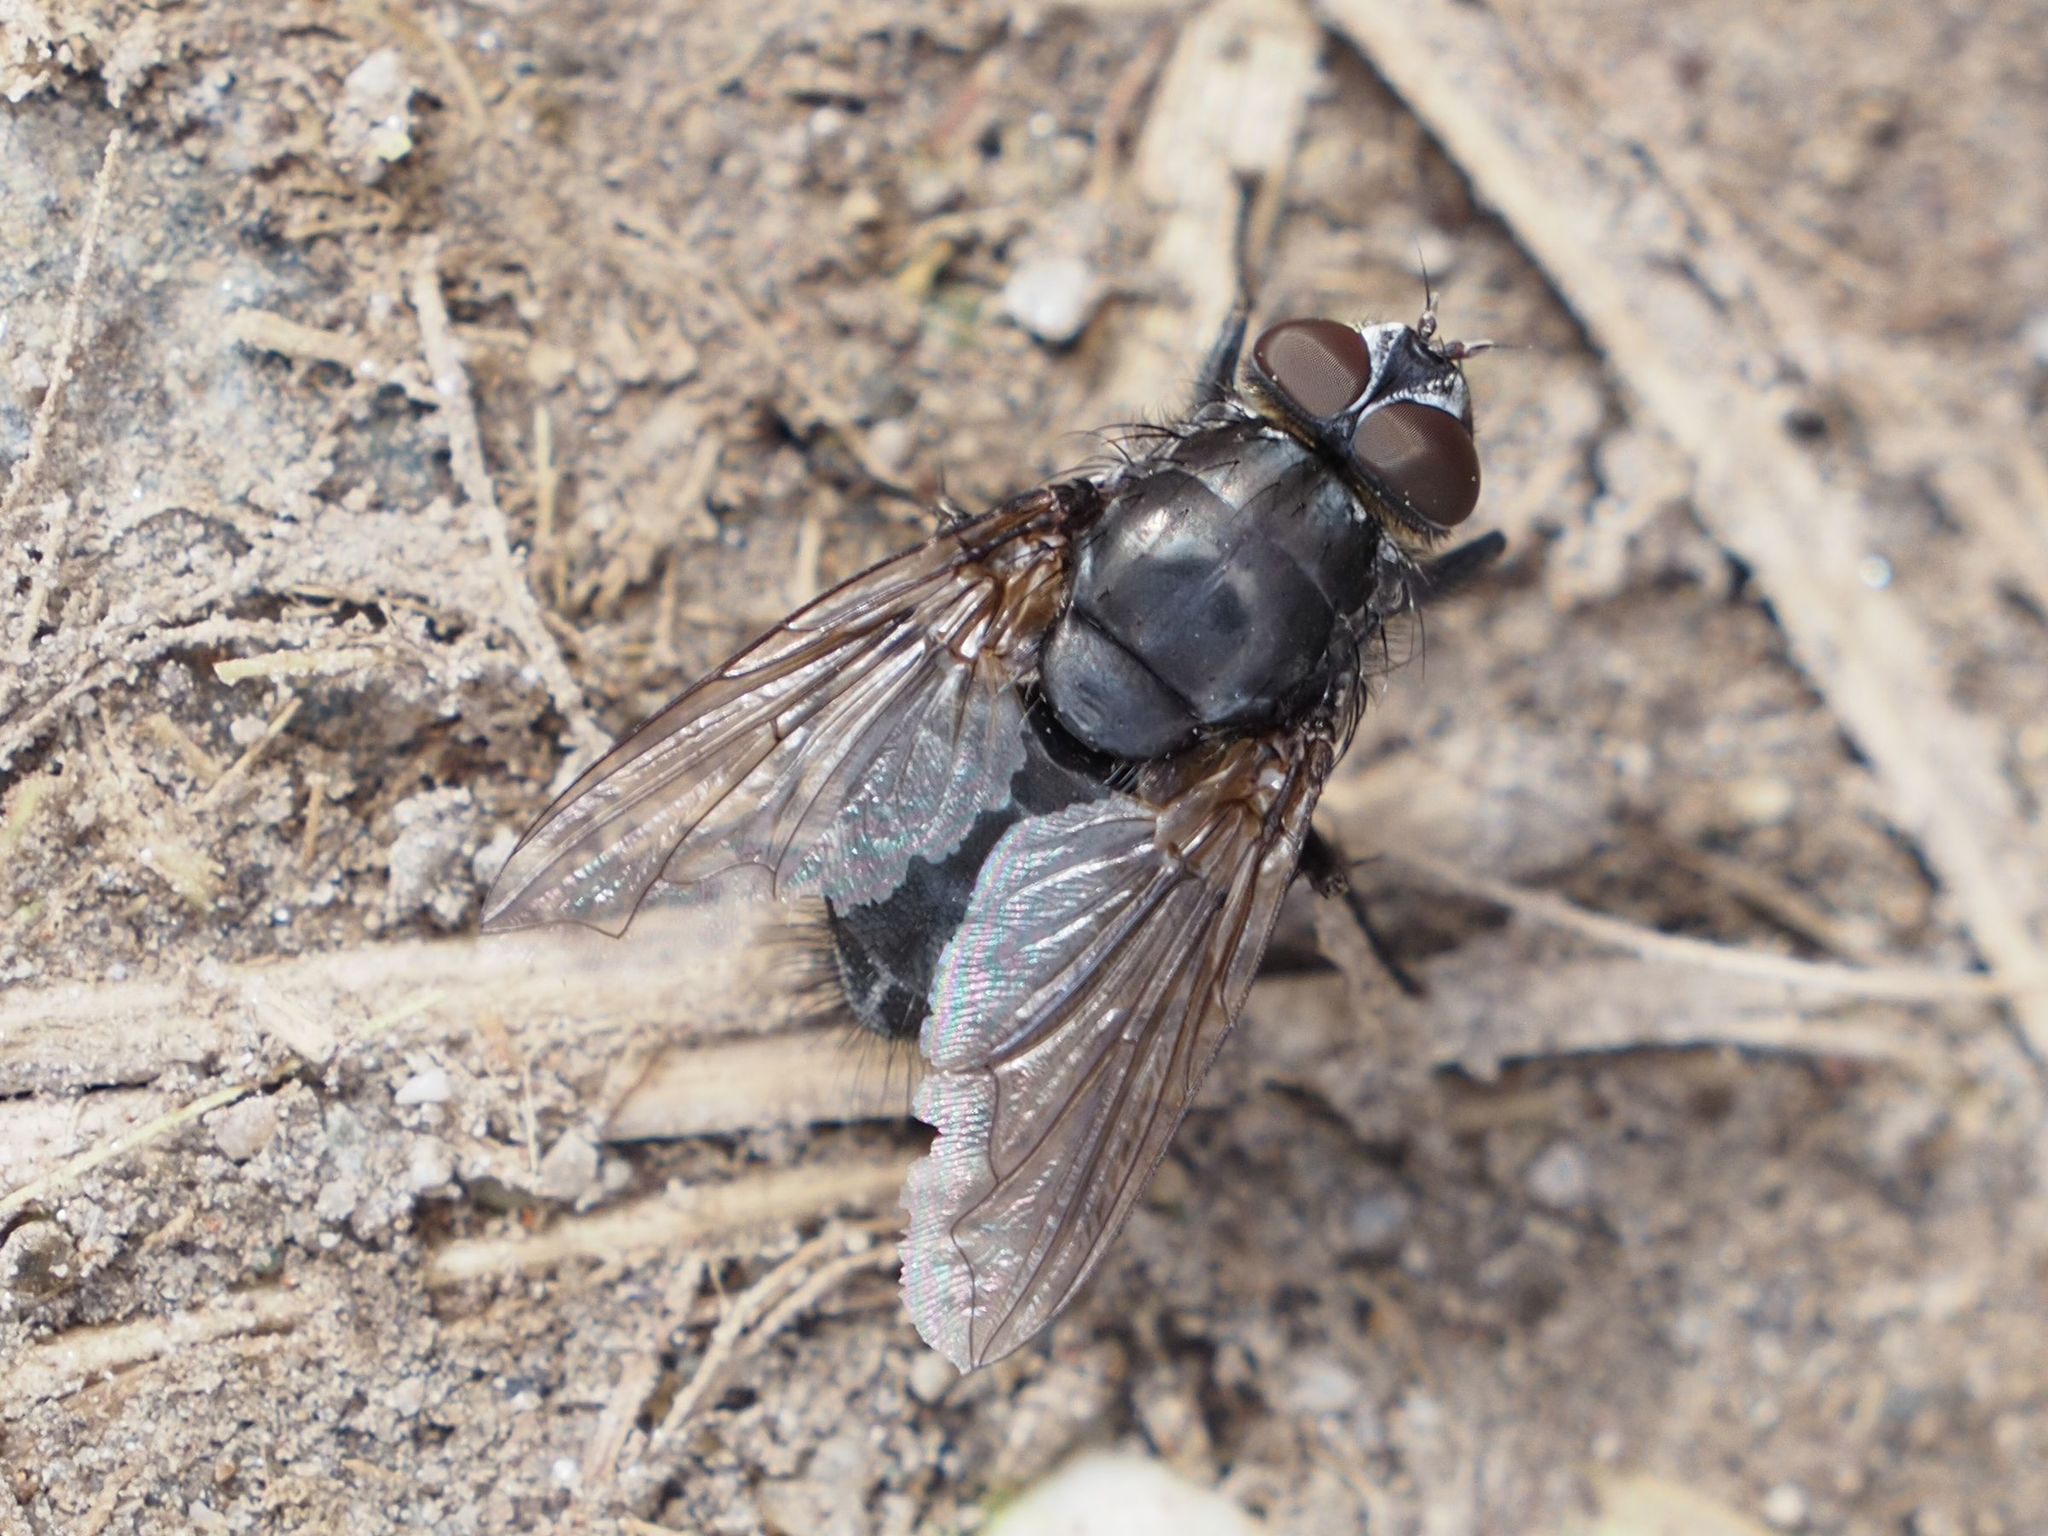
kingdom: Animalia
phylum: Arthropoda
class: Insecta
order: Diptera
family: Polleniidae
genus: Pollenia
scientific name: Pollenia vagabunda
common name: Vagabund cluster fly
